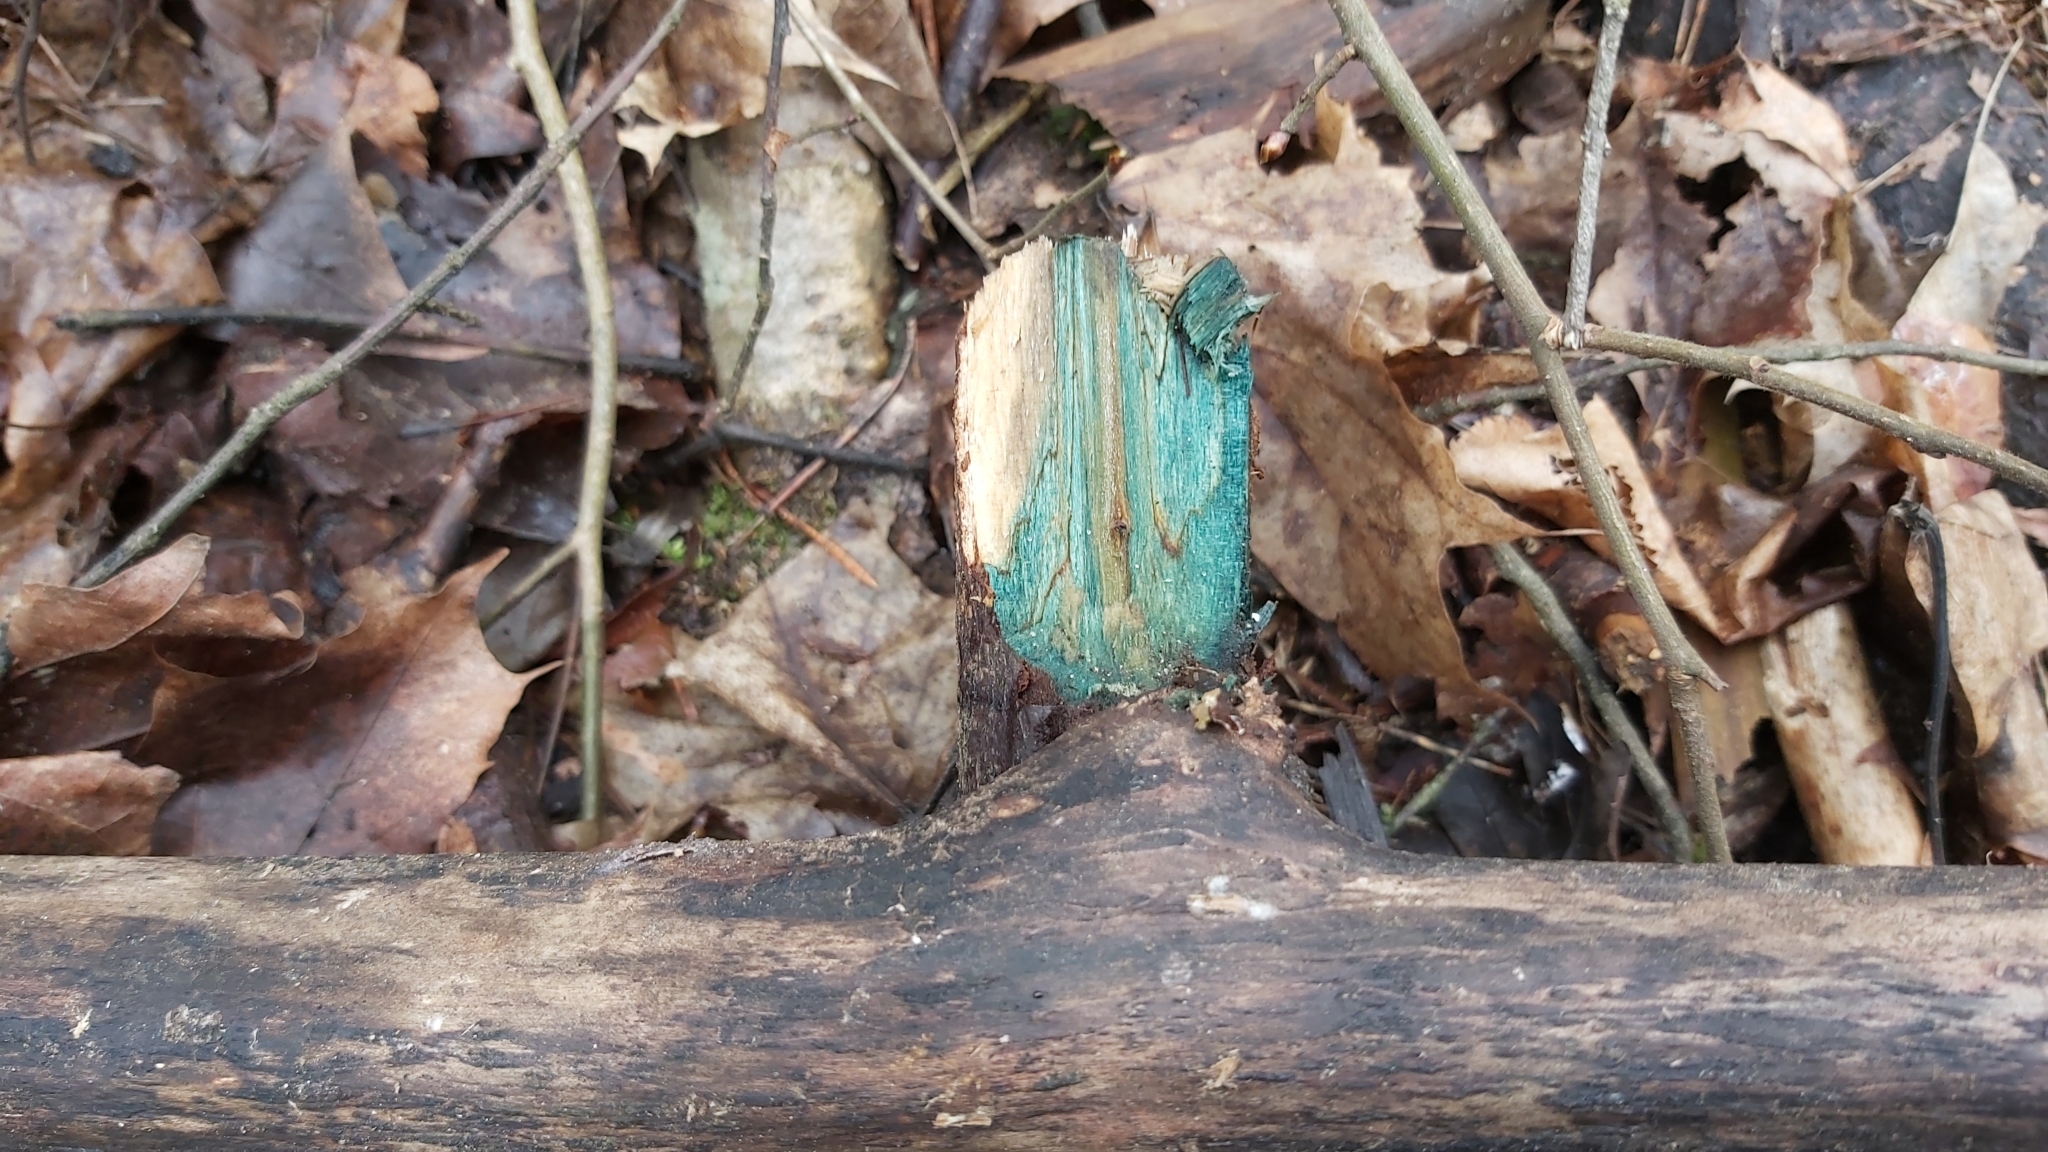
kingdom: Fungi
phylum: Ascomycota
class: Leotiomycetes
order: Helotiales
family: Chlorociboriaceae
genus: Chlorociboria
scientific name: Chlorociboria
